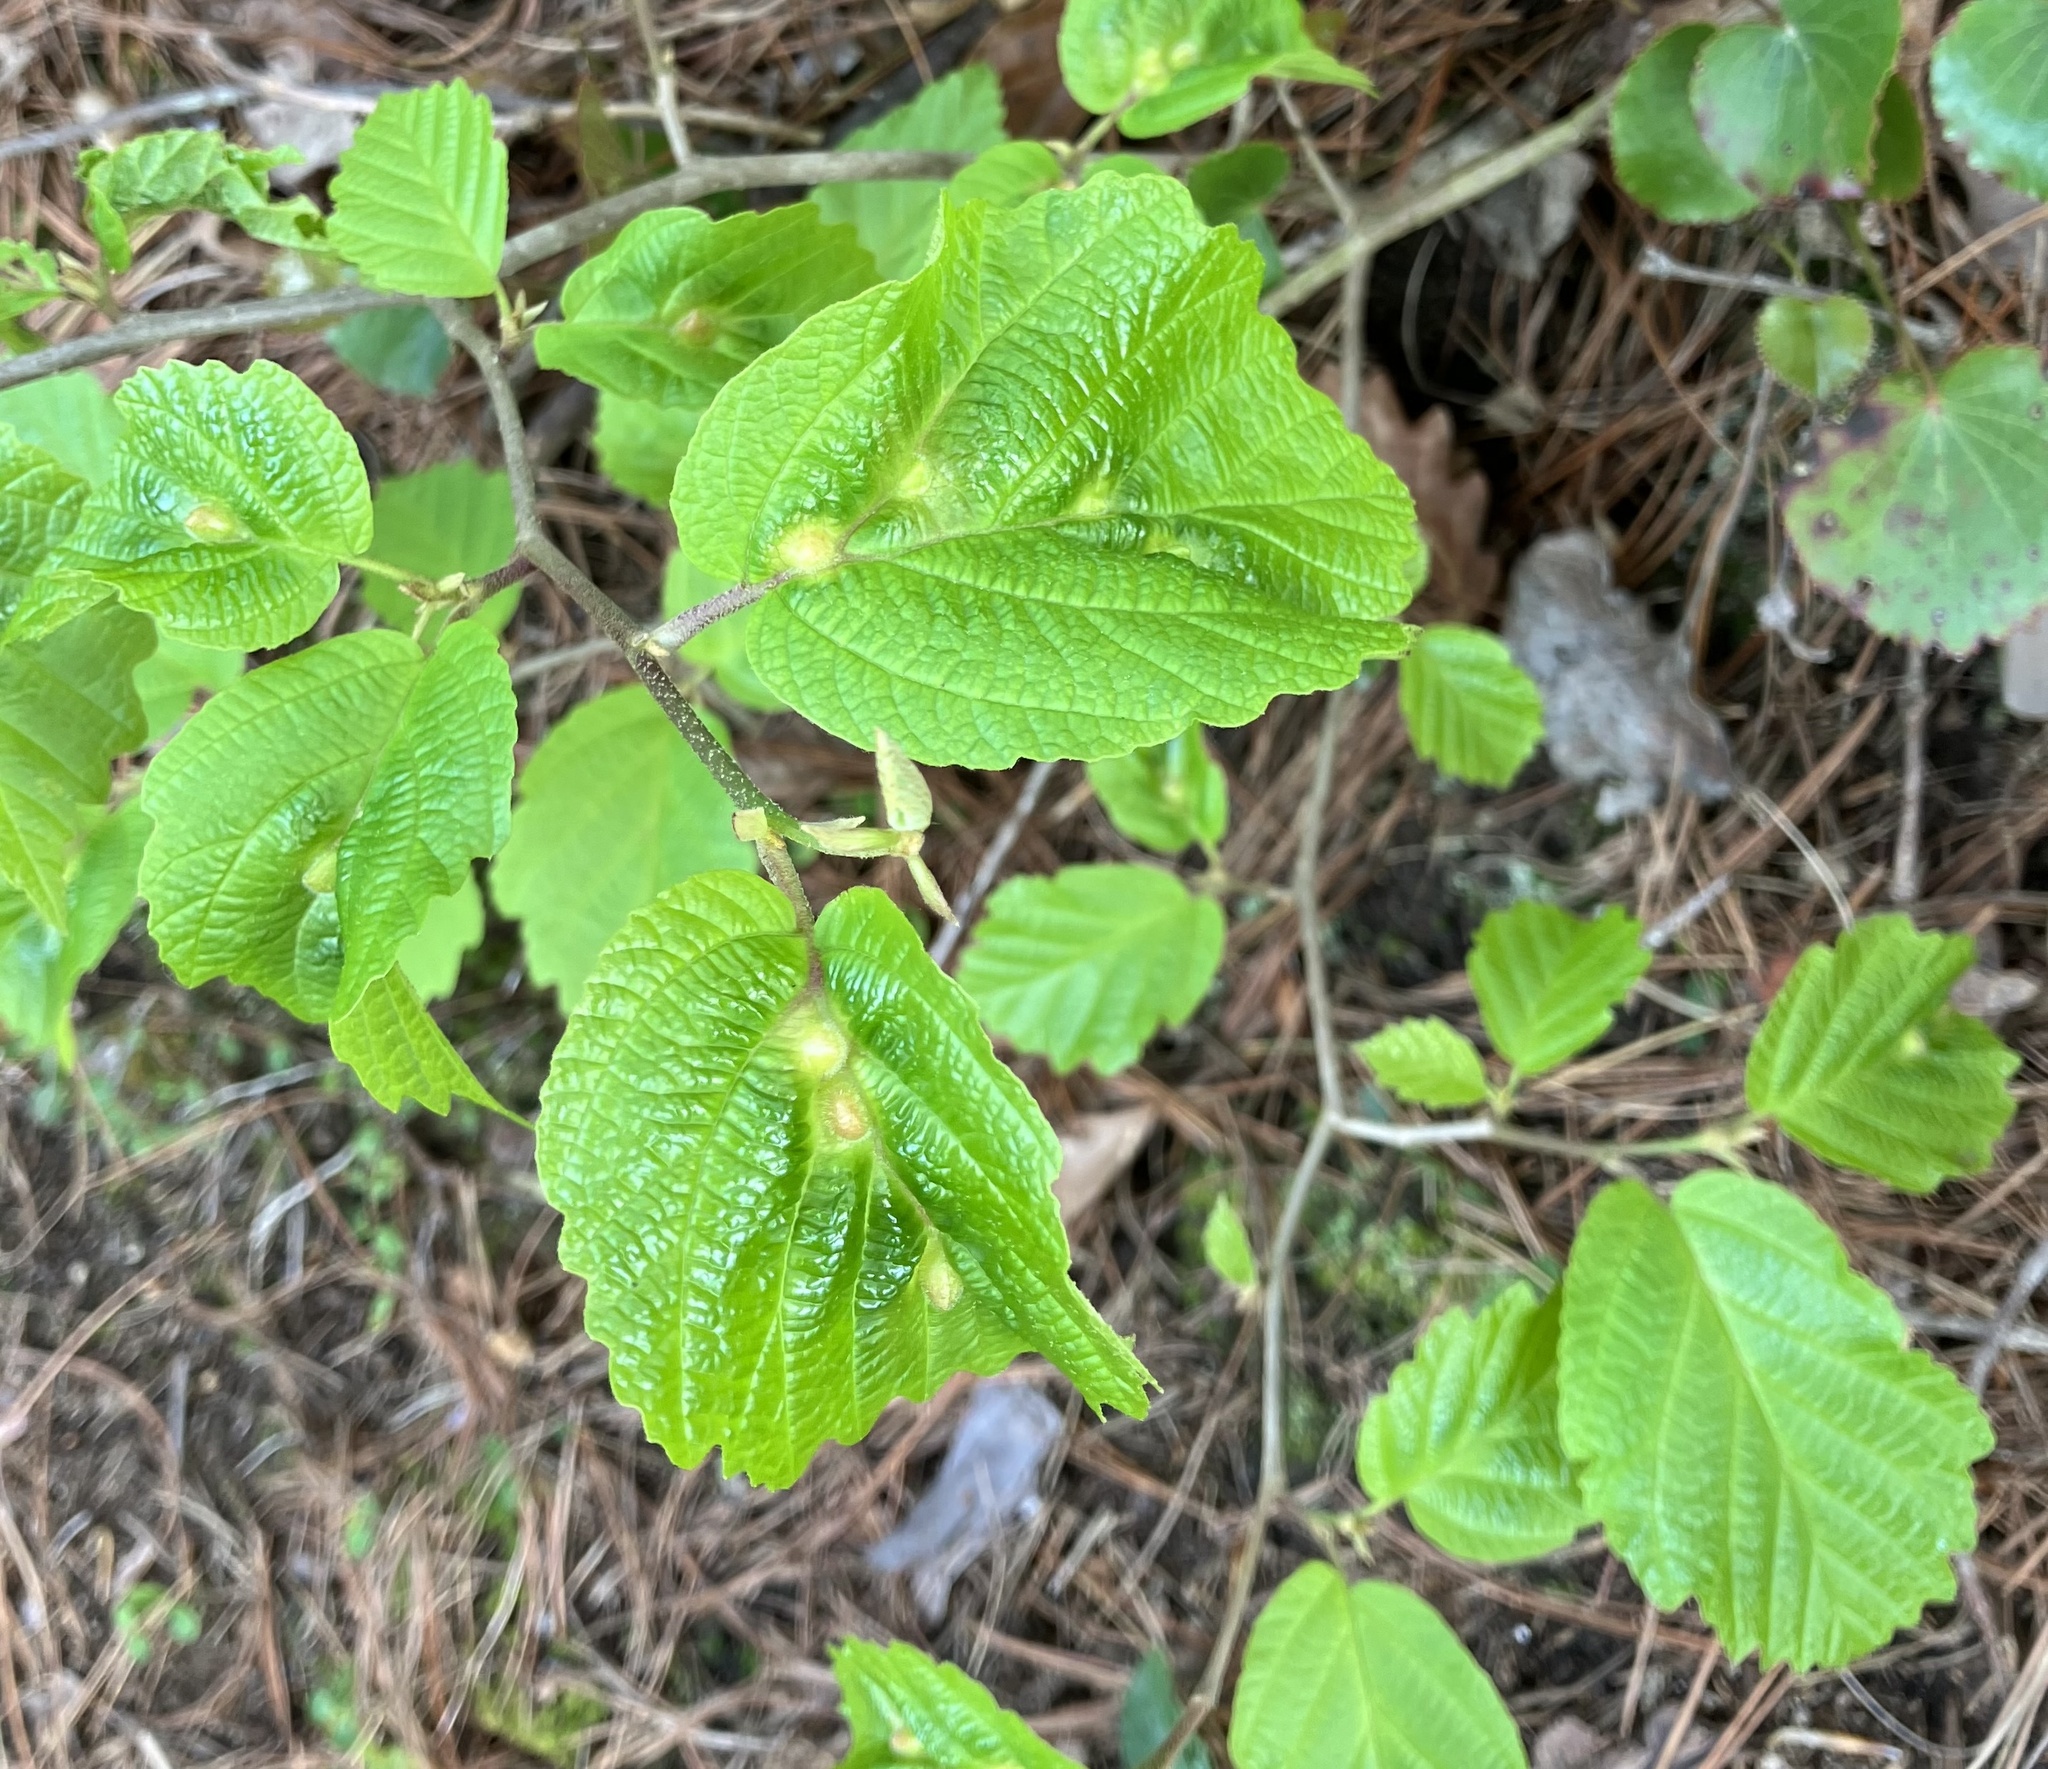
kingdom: Animalia
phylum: Arthropoda
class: Insecta
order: Hemiptera
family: Aphididae
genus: Hormaphis
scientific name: Hormaphis hamamelidis
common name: Witch-hazel cone gall aphid
